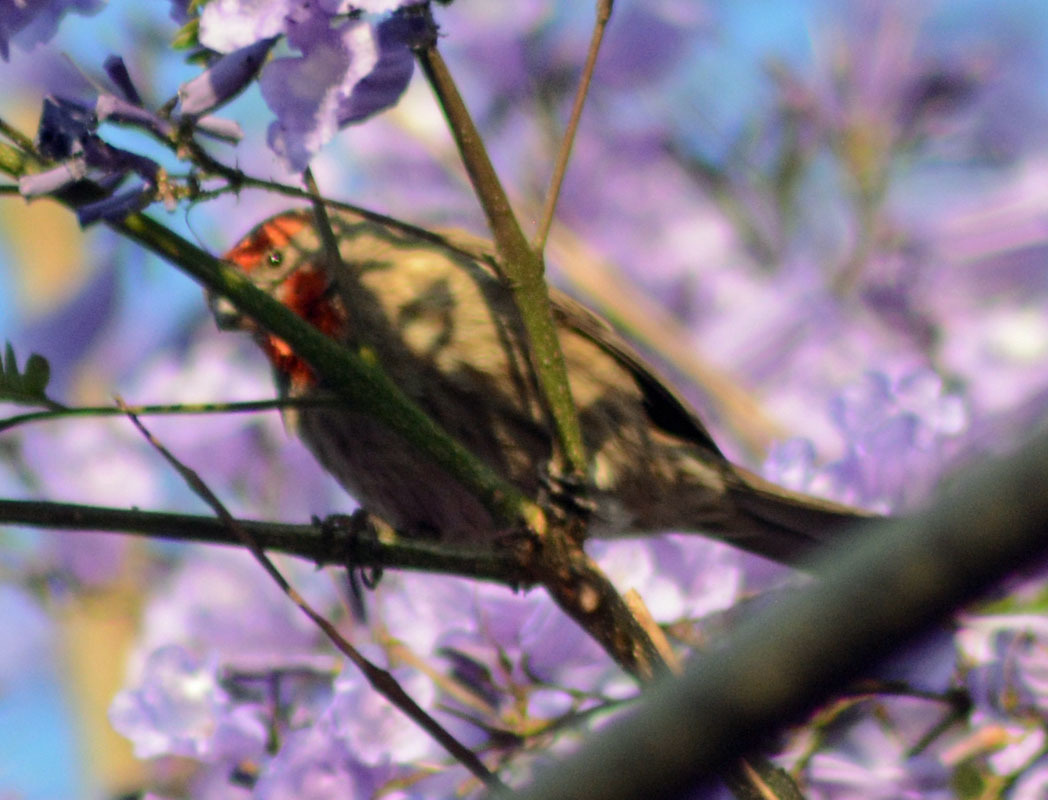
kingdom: Animalia
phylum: Chordata
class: Aves
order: Passeriformes
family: Fringillidae
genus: Haemorhous
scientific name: Haemorhous mexicanus
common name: House finch
